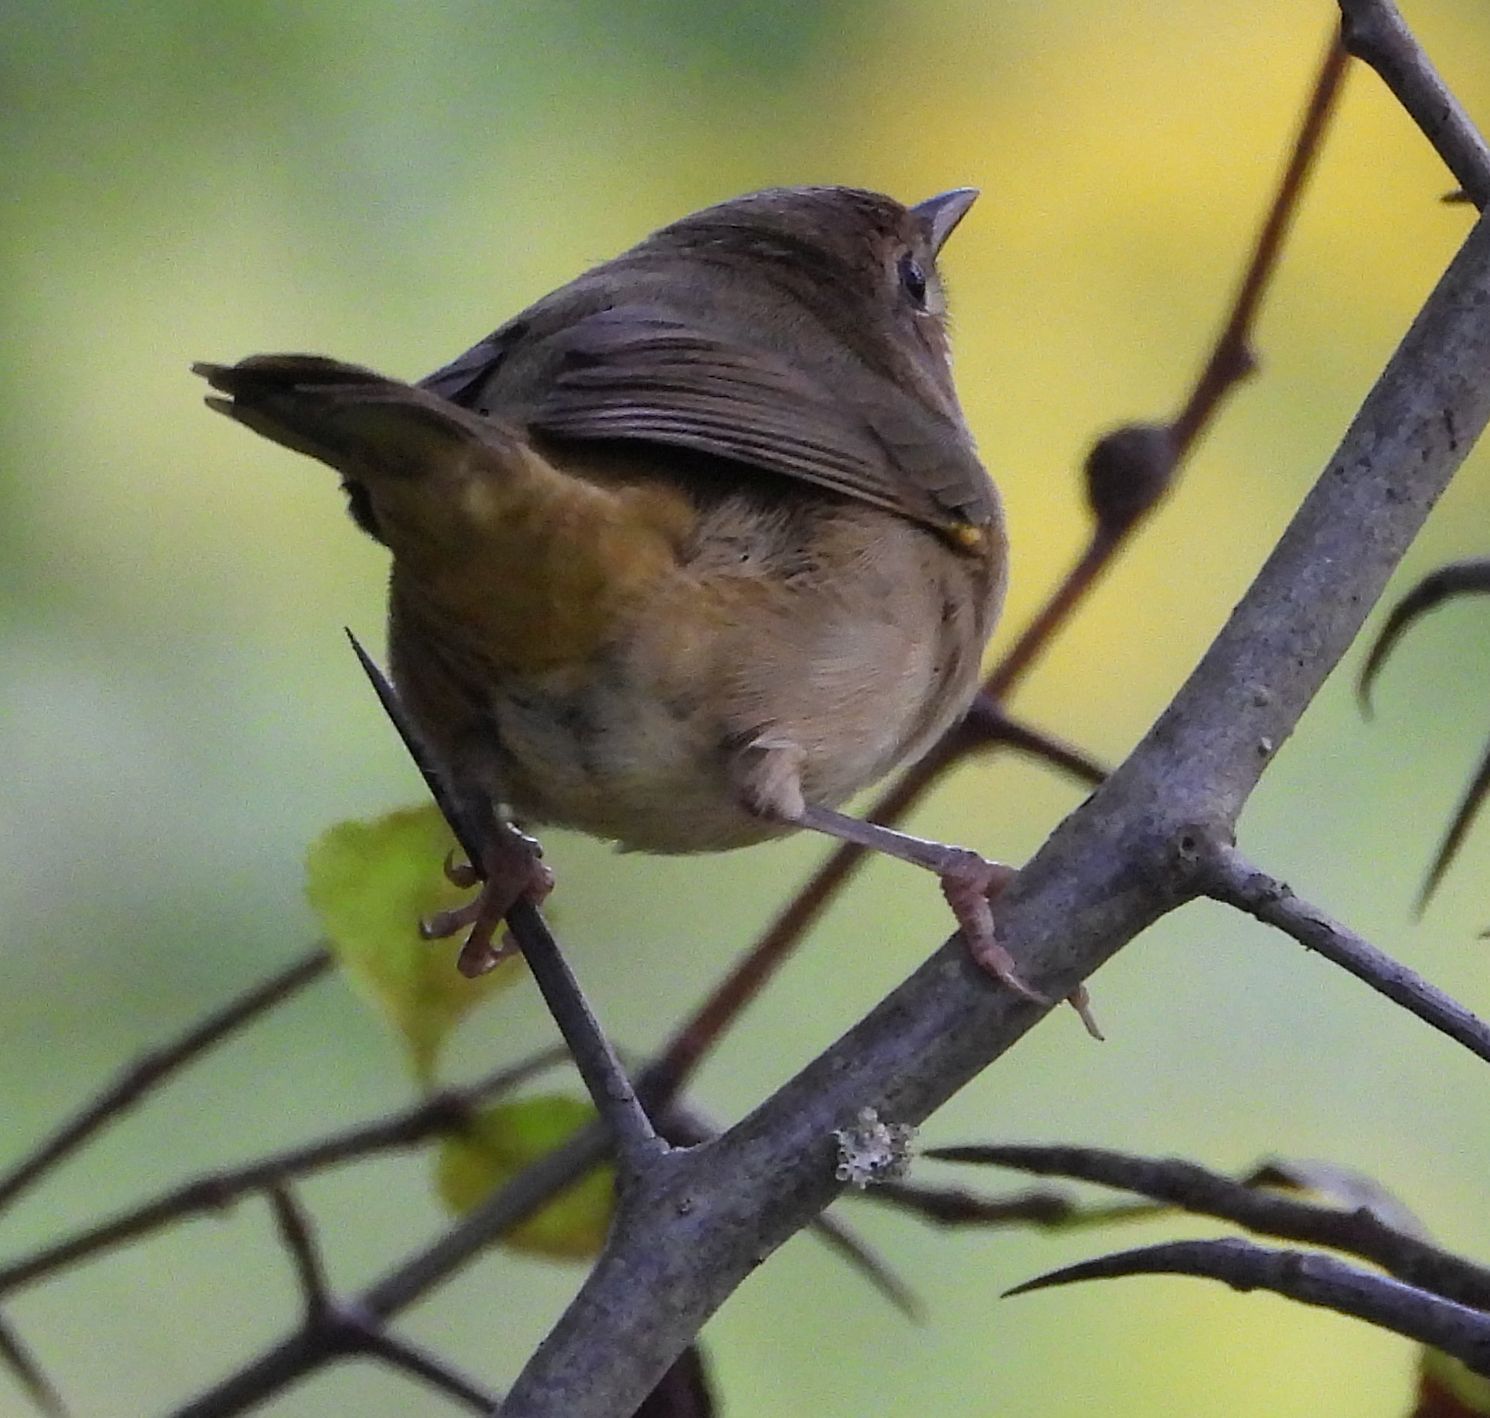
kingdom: Animalia
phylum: Chordata
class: Aves
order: Passeriformes
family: Parulidae
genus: Geothlypis
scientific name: Geothlypis trichas
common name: Common yellowthroat
